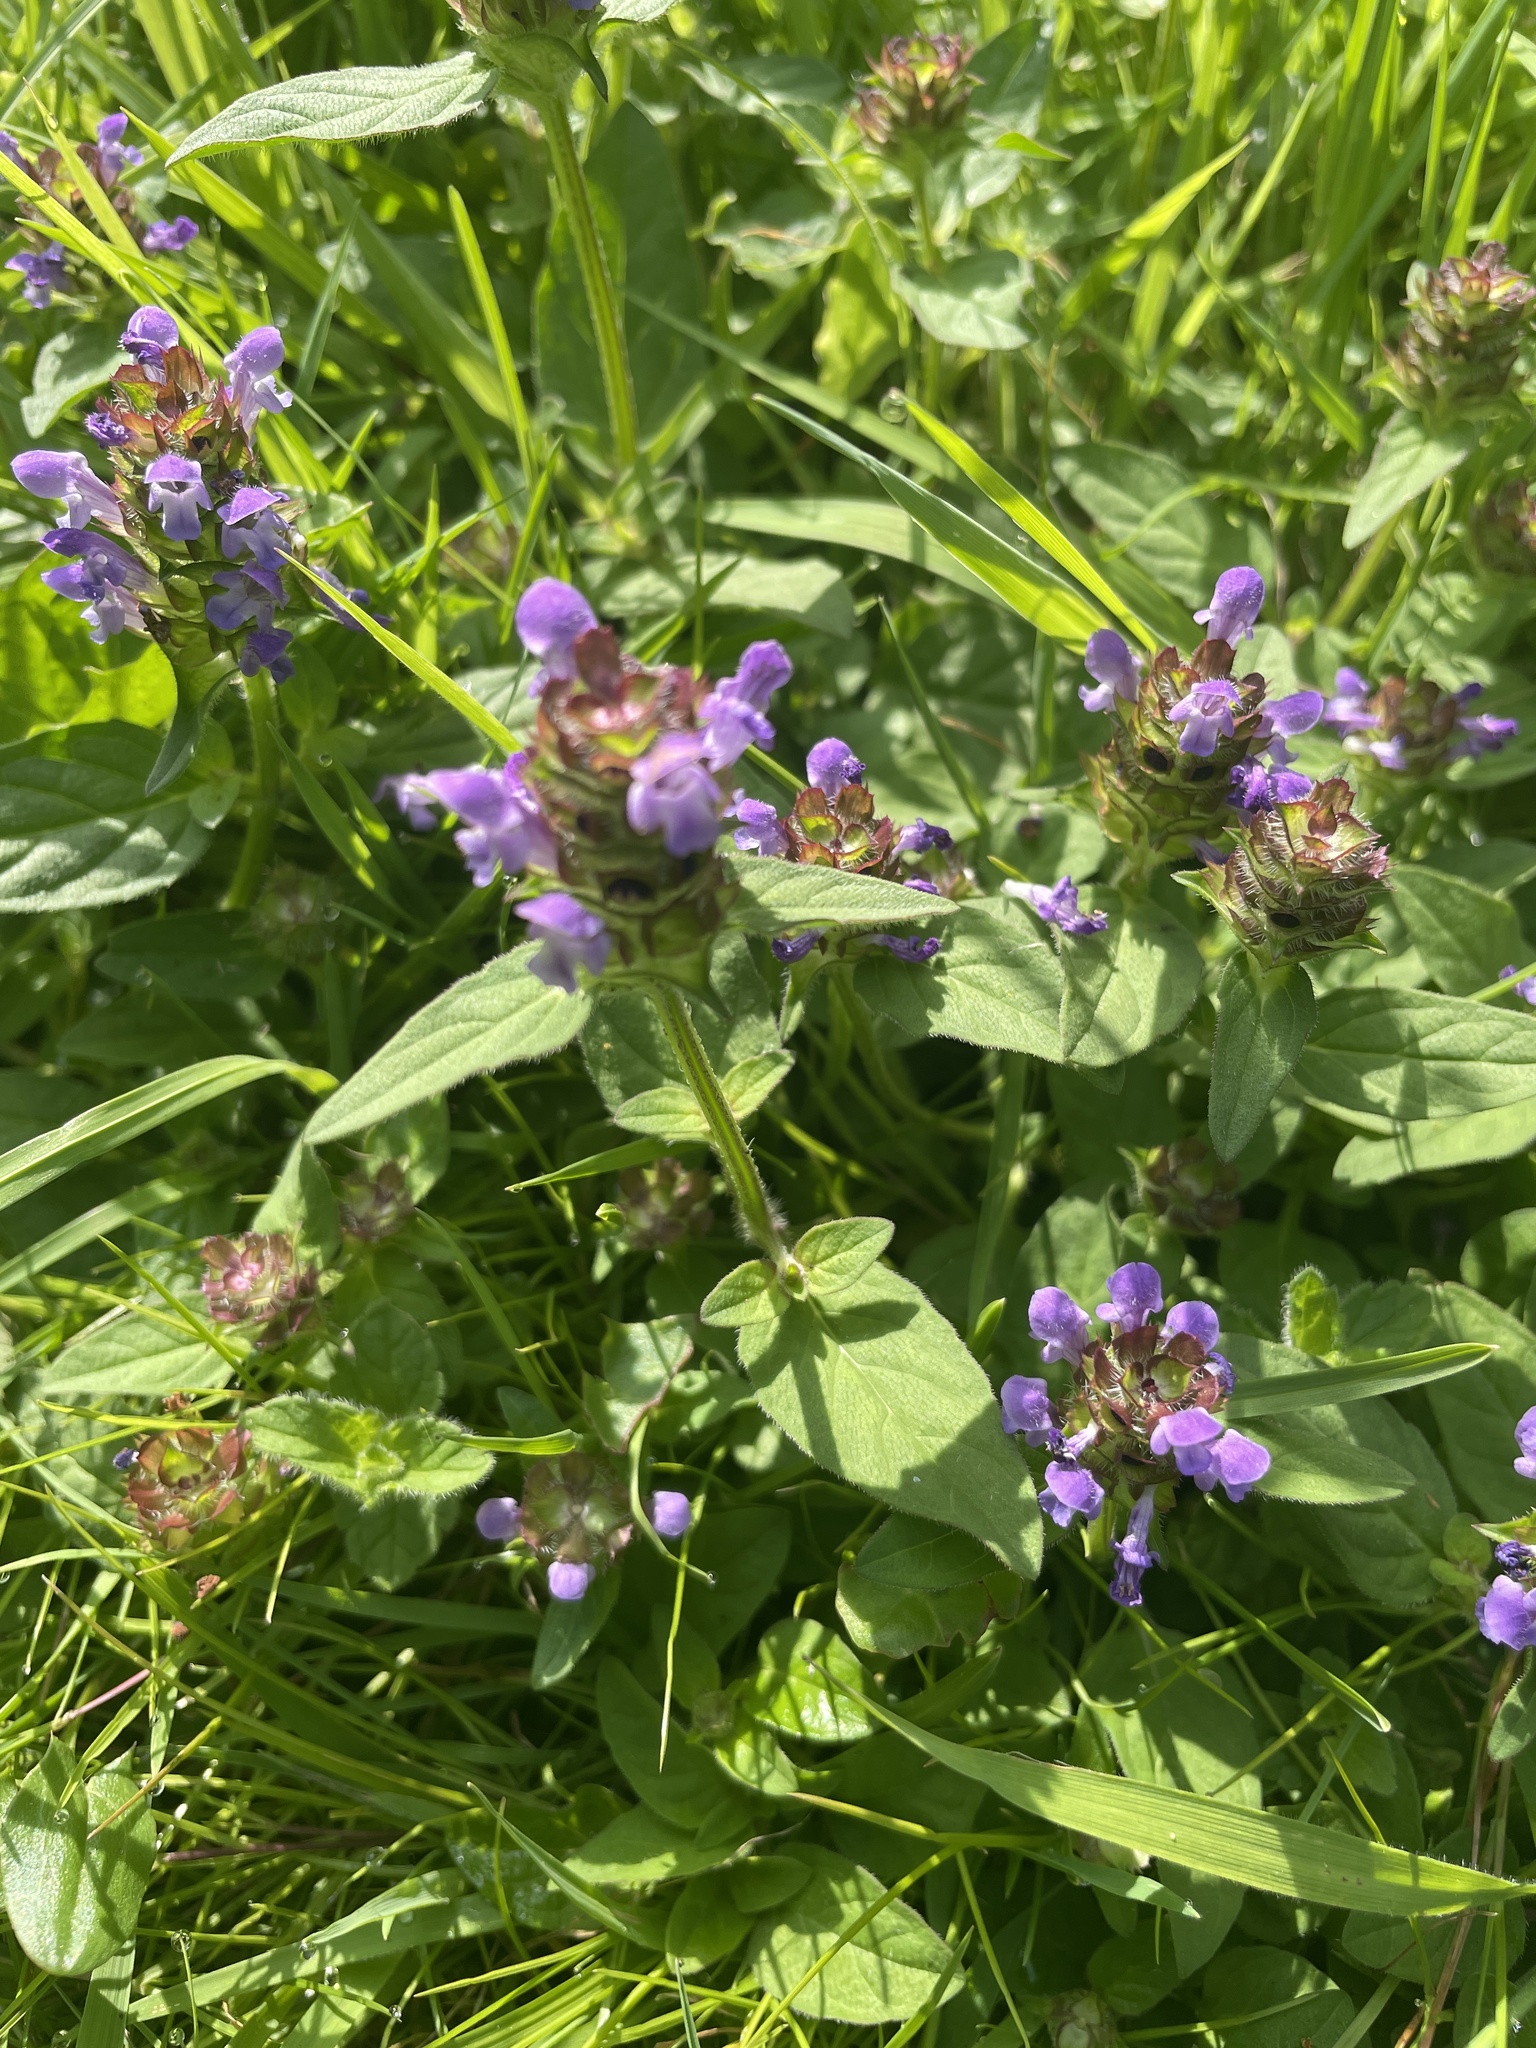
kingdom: Plantae
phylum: Tracheophyta
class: Magnoliopsida
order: Lamiales
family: Lamiaceae
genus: Prunella
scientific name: Prunella vulgaris
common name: Heal-all
